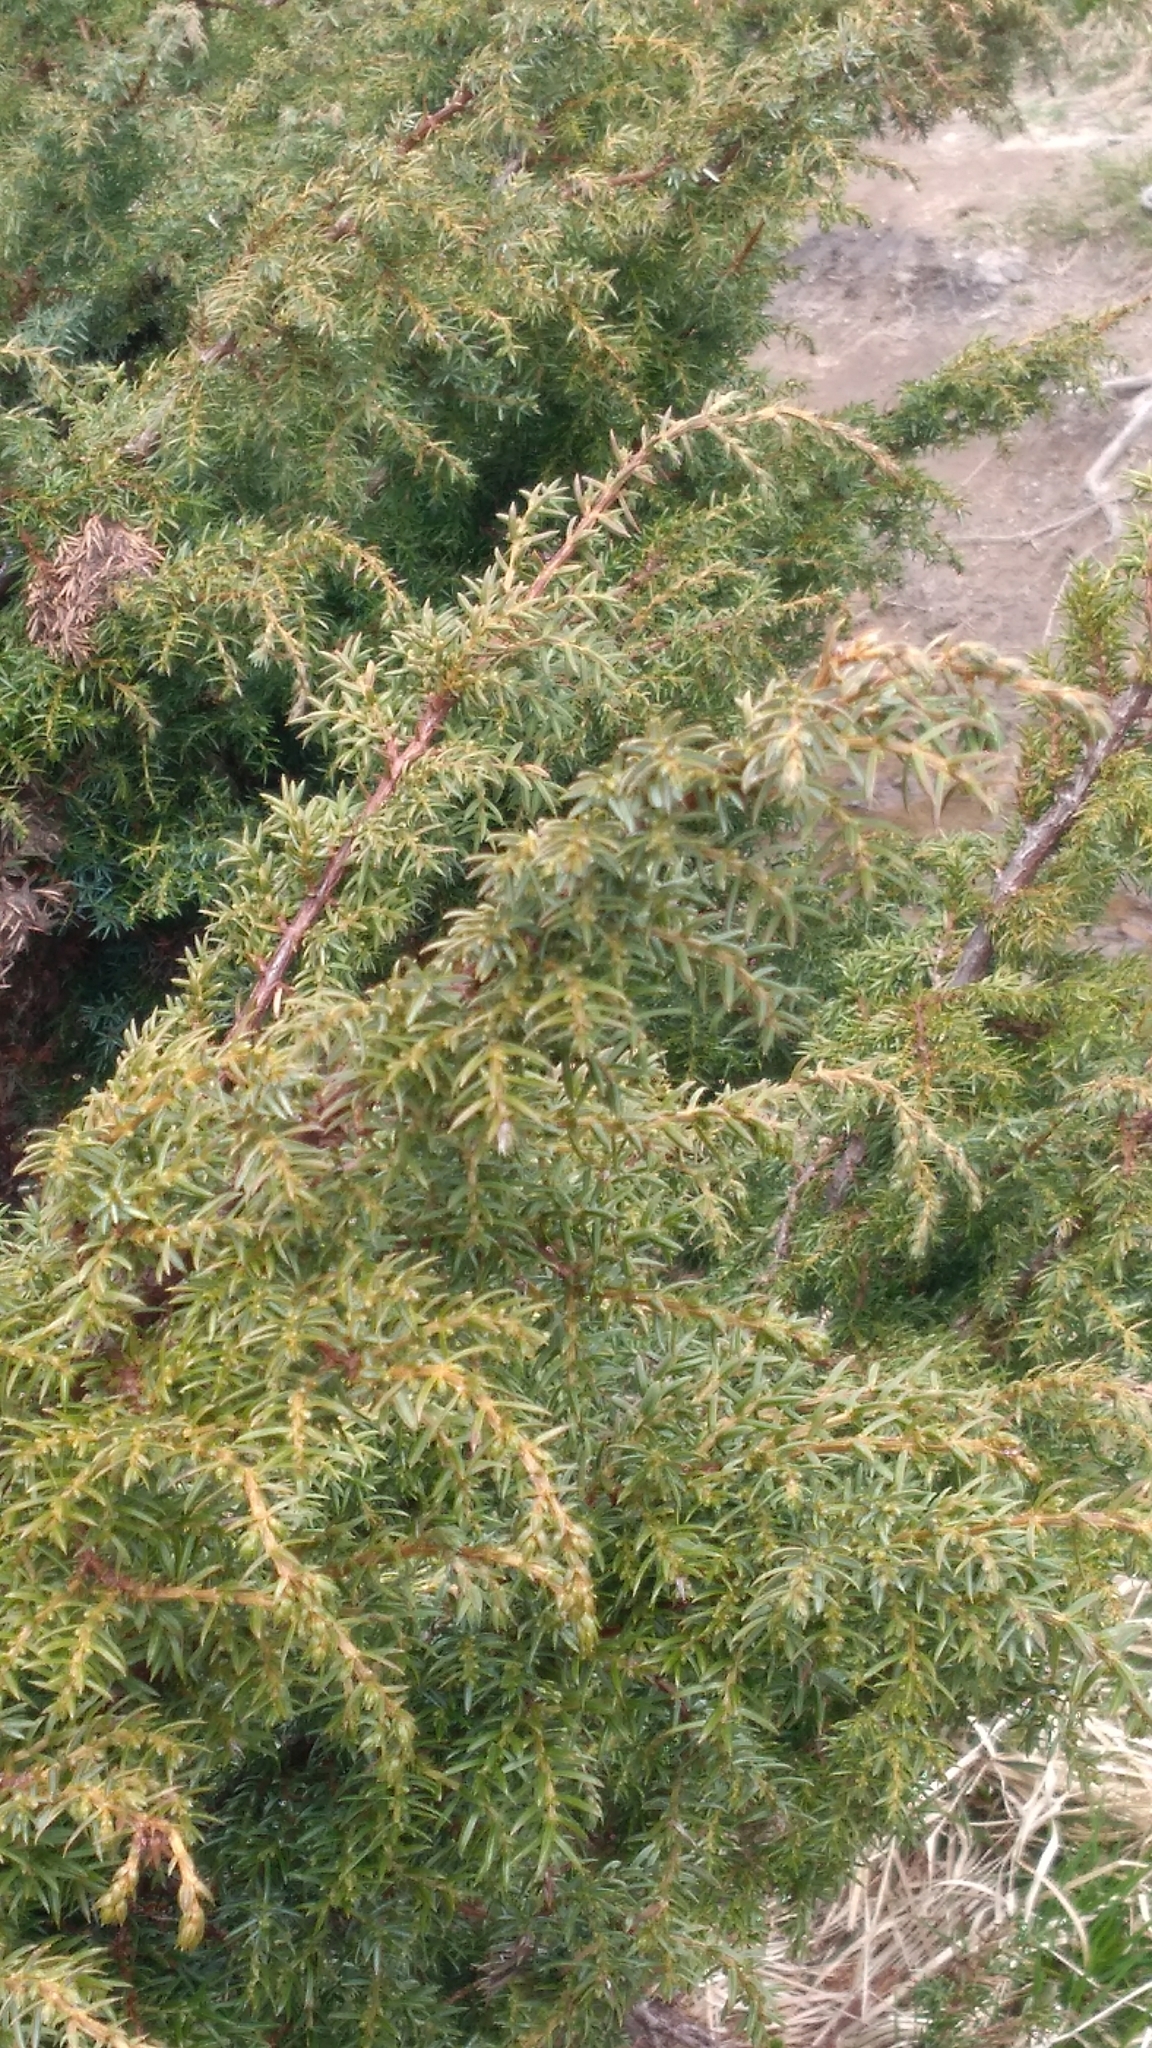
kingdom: Plantae
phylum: Tracheophyta
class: Pinopsida
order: Pinales
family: Cupressaceae
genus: Juniperus
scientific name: Juniperus communis
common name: Common juniper
